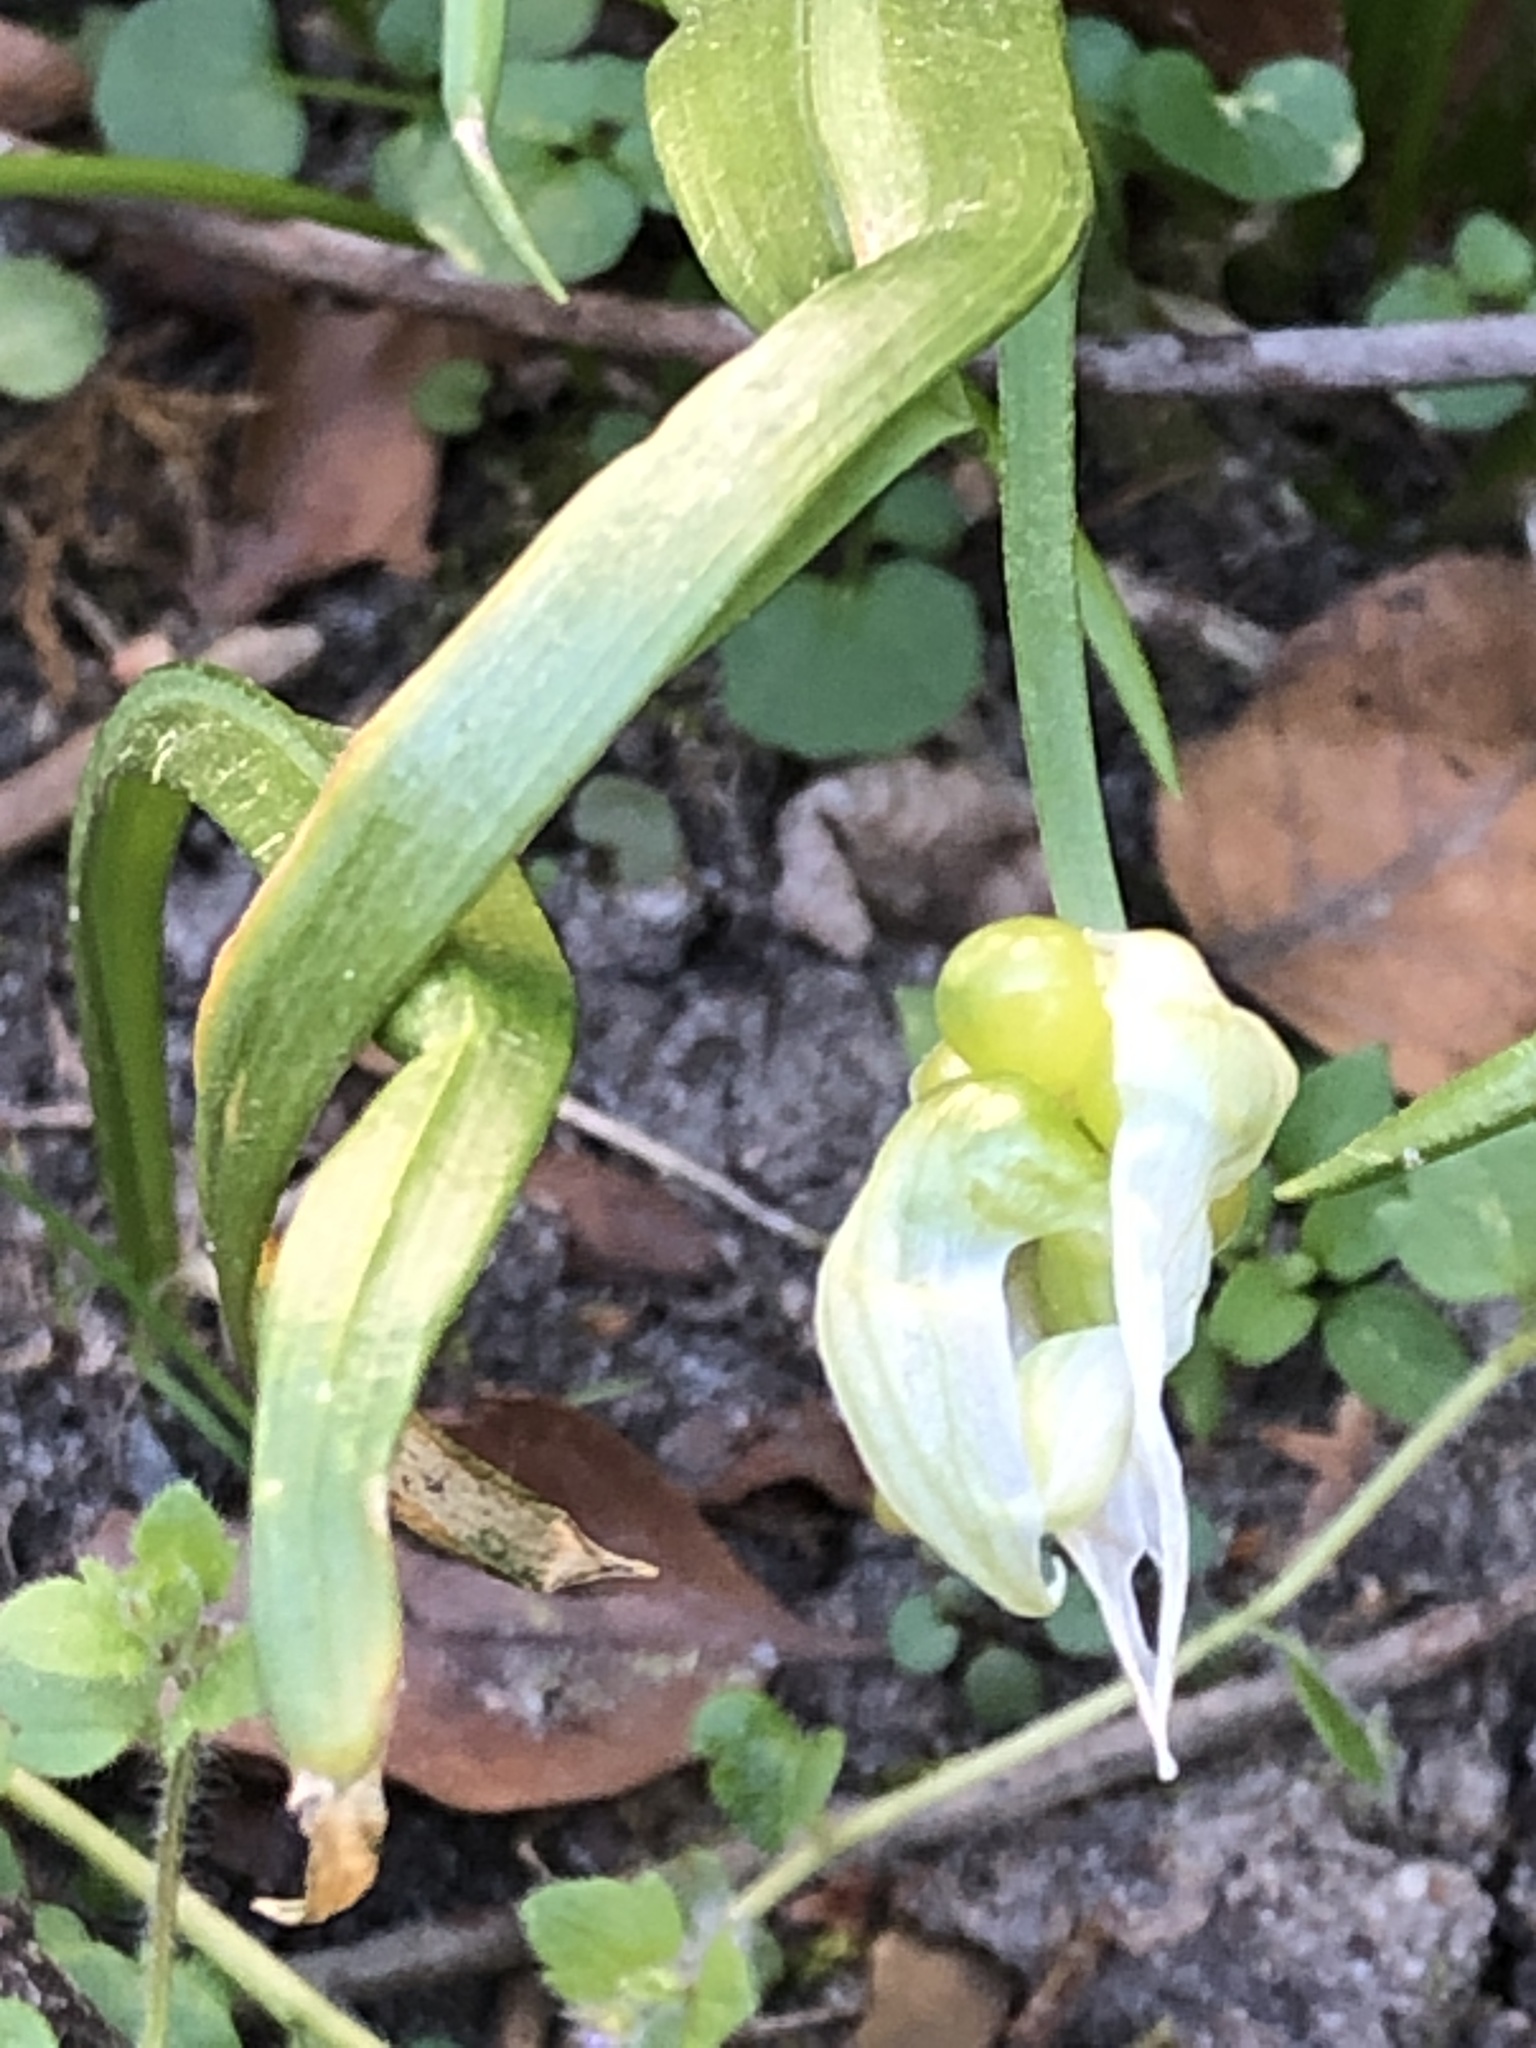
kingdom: Plantae
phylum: Tracheophyta
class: Liliopsida
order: Asparagales
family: Amaryllidaceae
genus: Allium
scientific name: Allium paradoxum
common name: Few-flowered garlic
